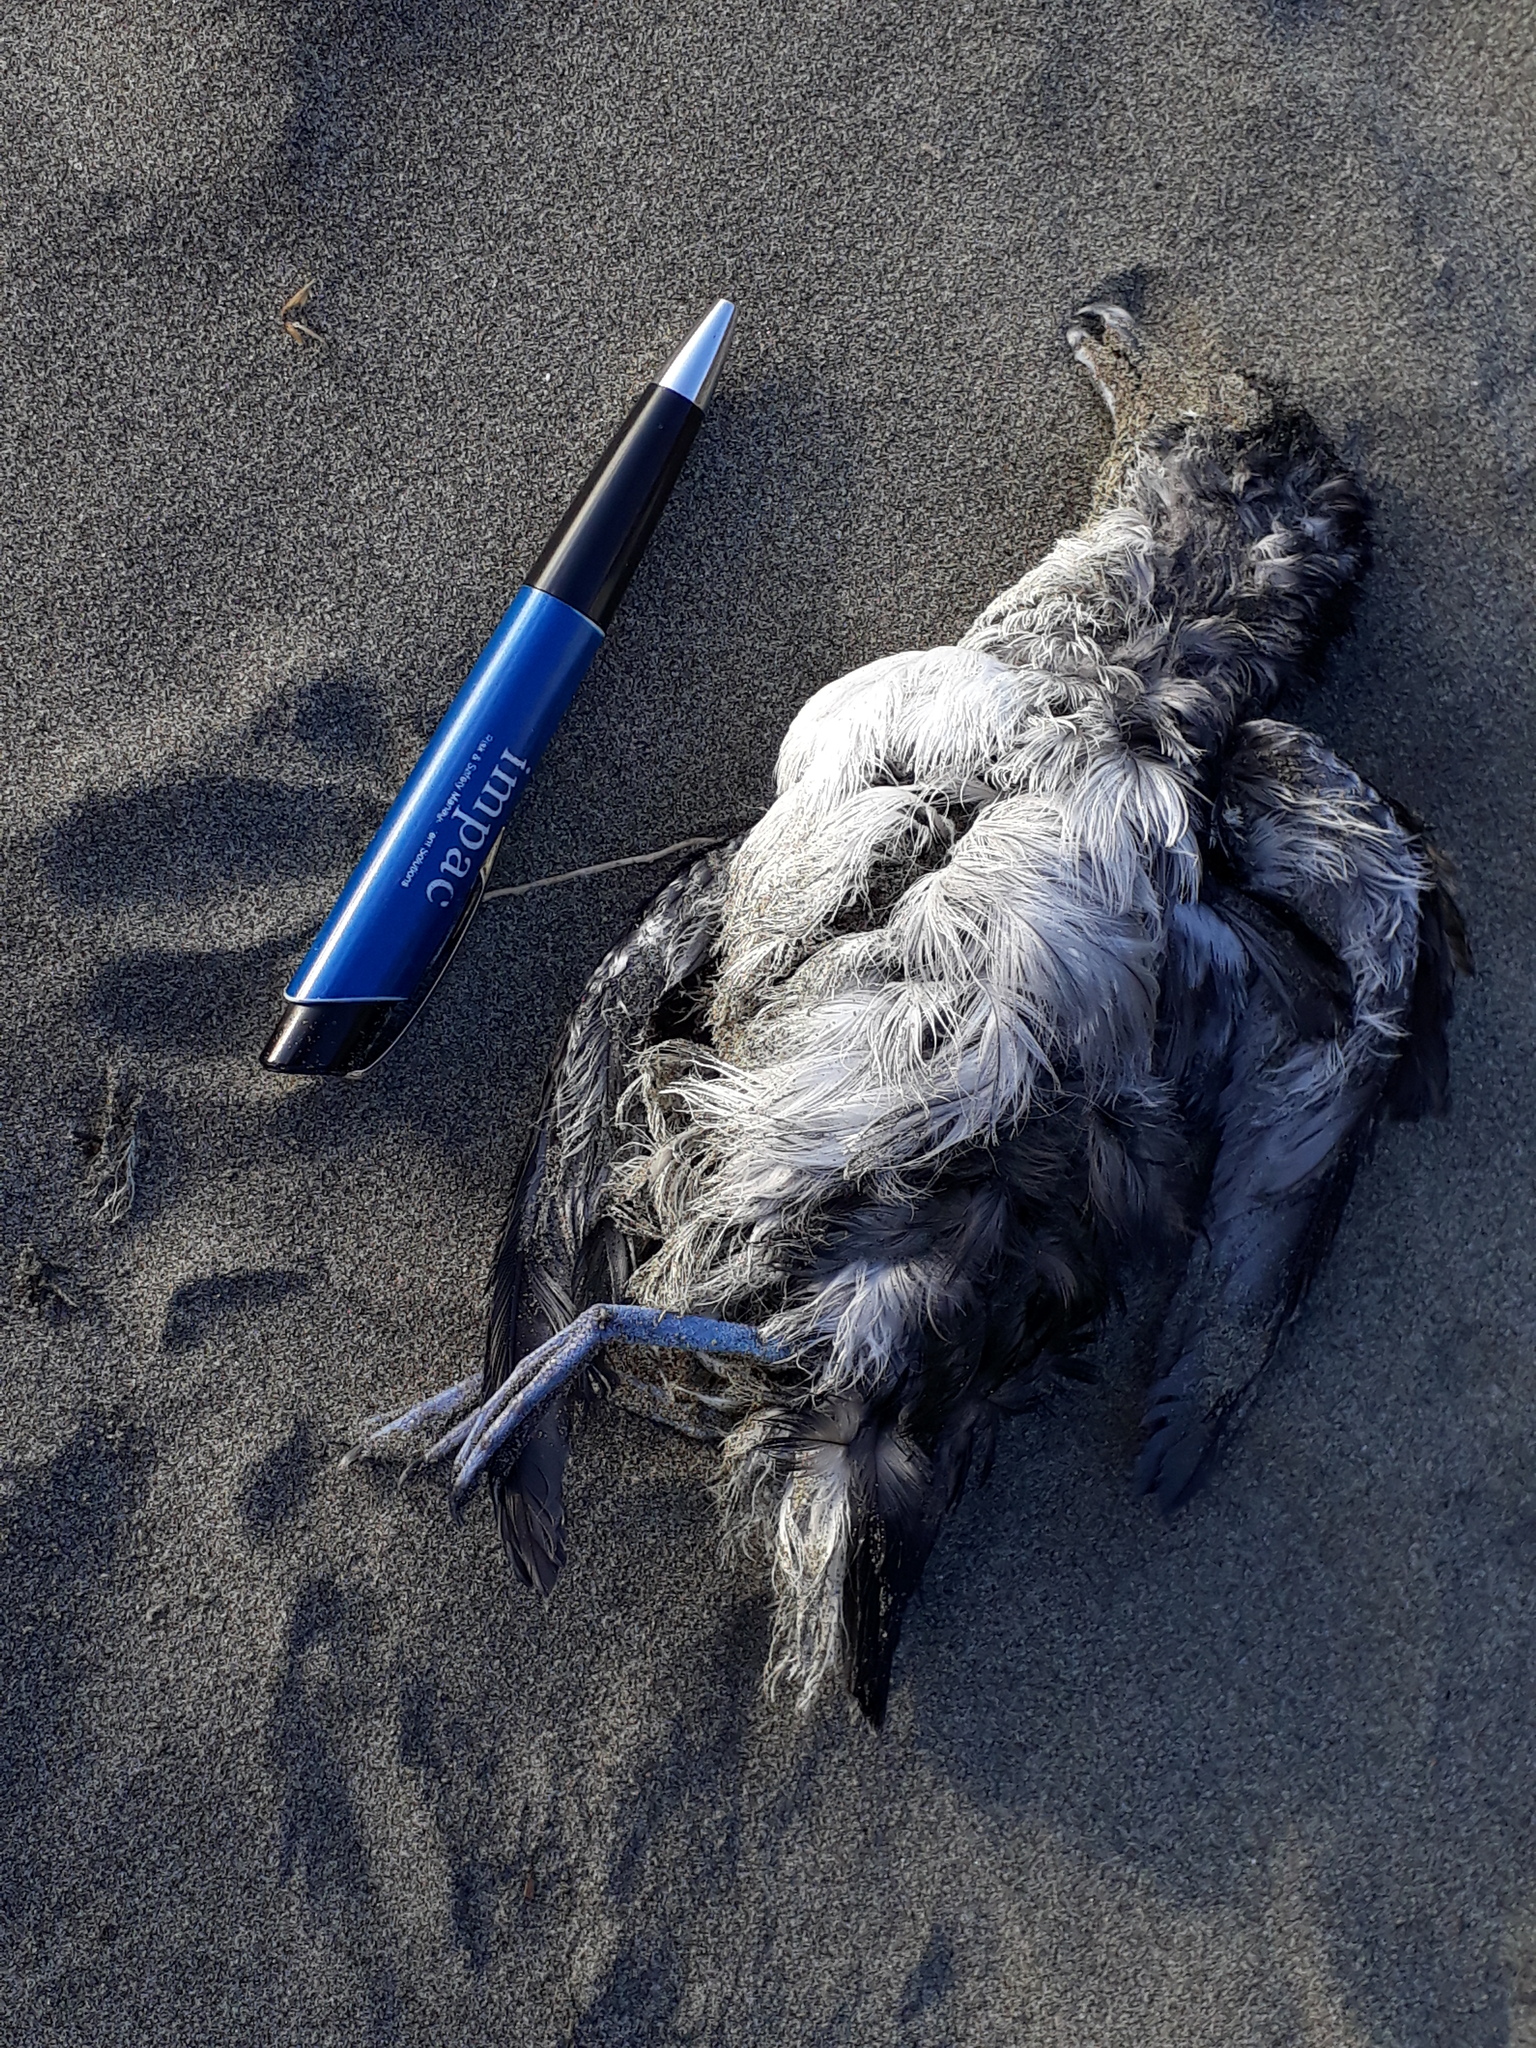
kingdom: Animalia
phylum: Chordata
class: Aves
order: Procellariiformes
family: Pelecanoididae
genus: Pelecanoides
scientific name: Pelecanoides urinatrix
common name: Common diving-petrel
